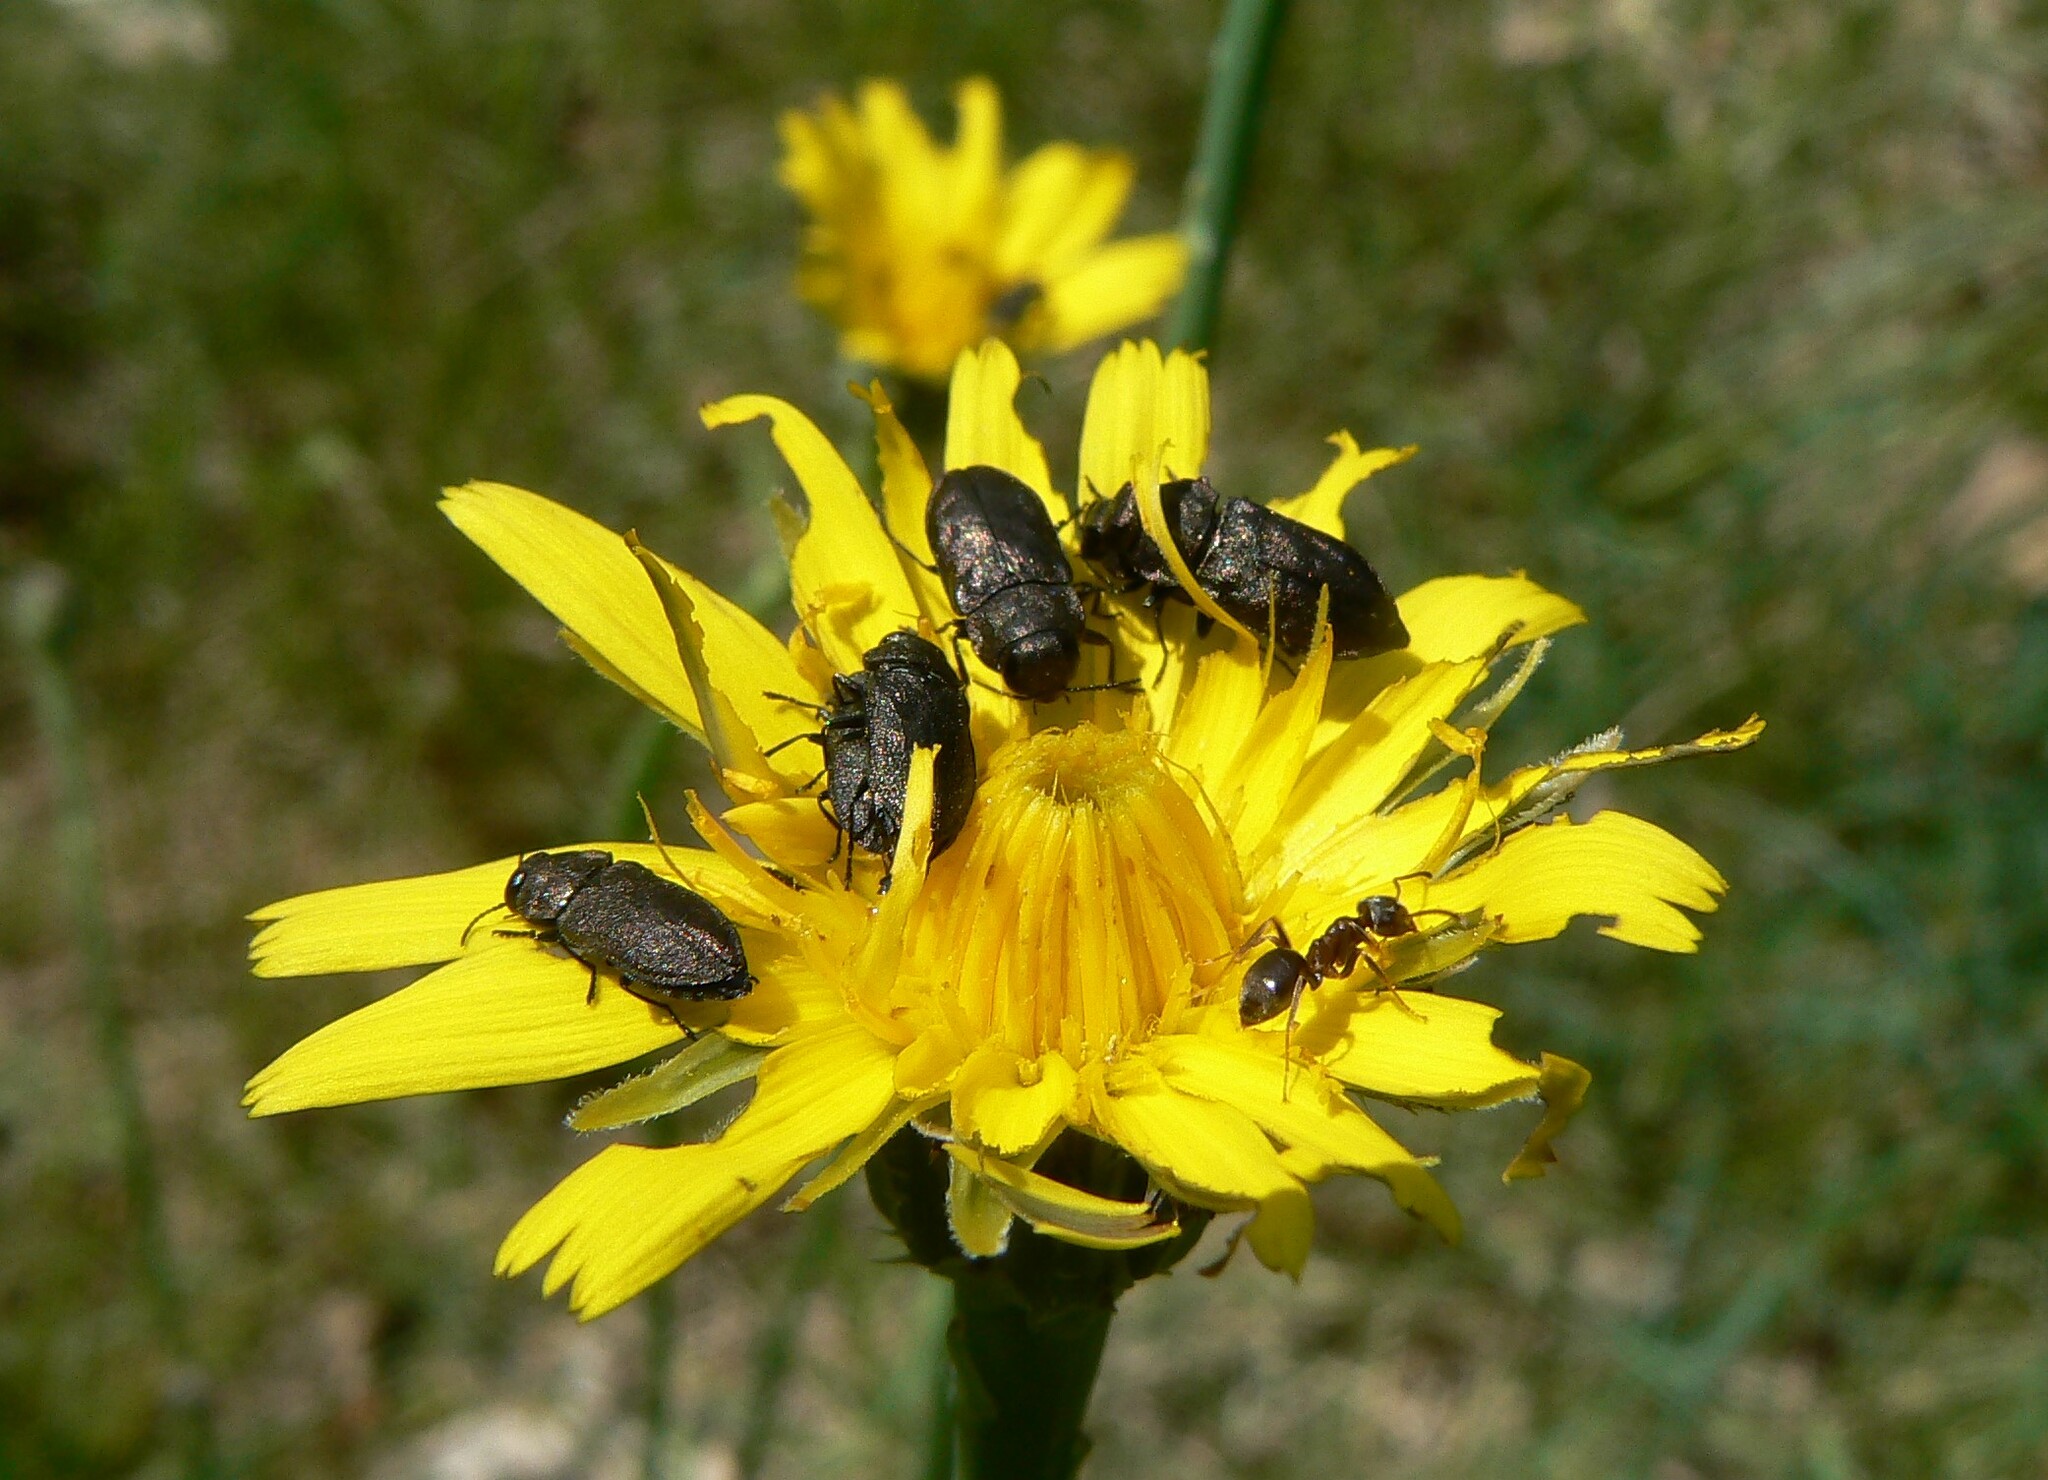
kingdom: Animalia
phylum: Arthropoda
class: Insecta
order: Coleoptera
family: Buprestidae
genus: Anthaxia
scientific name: Anthaxia quadripunctata
